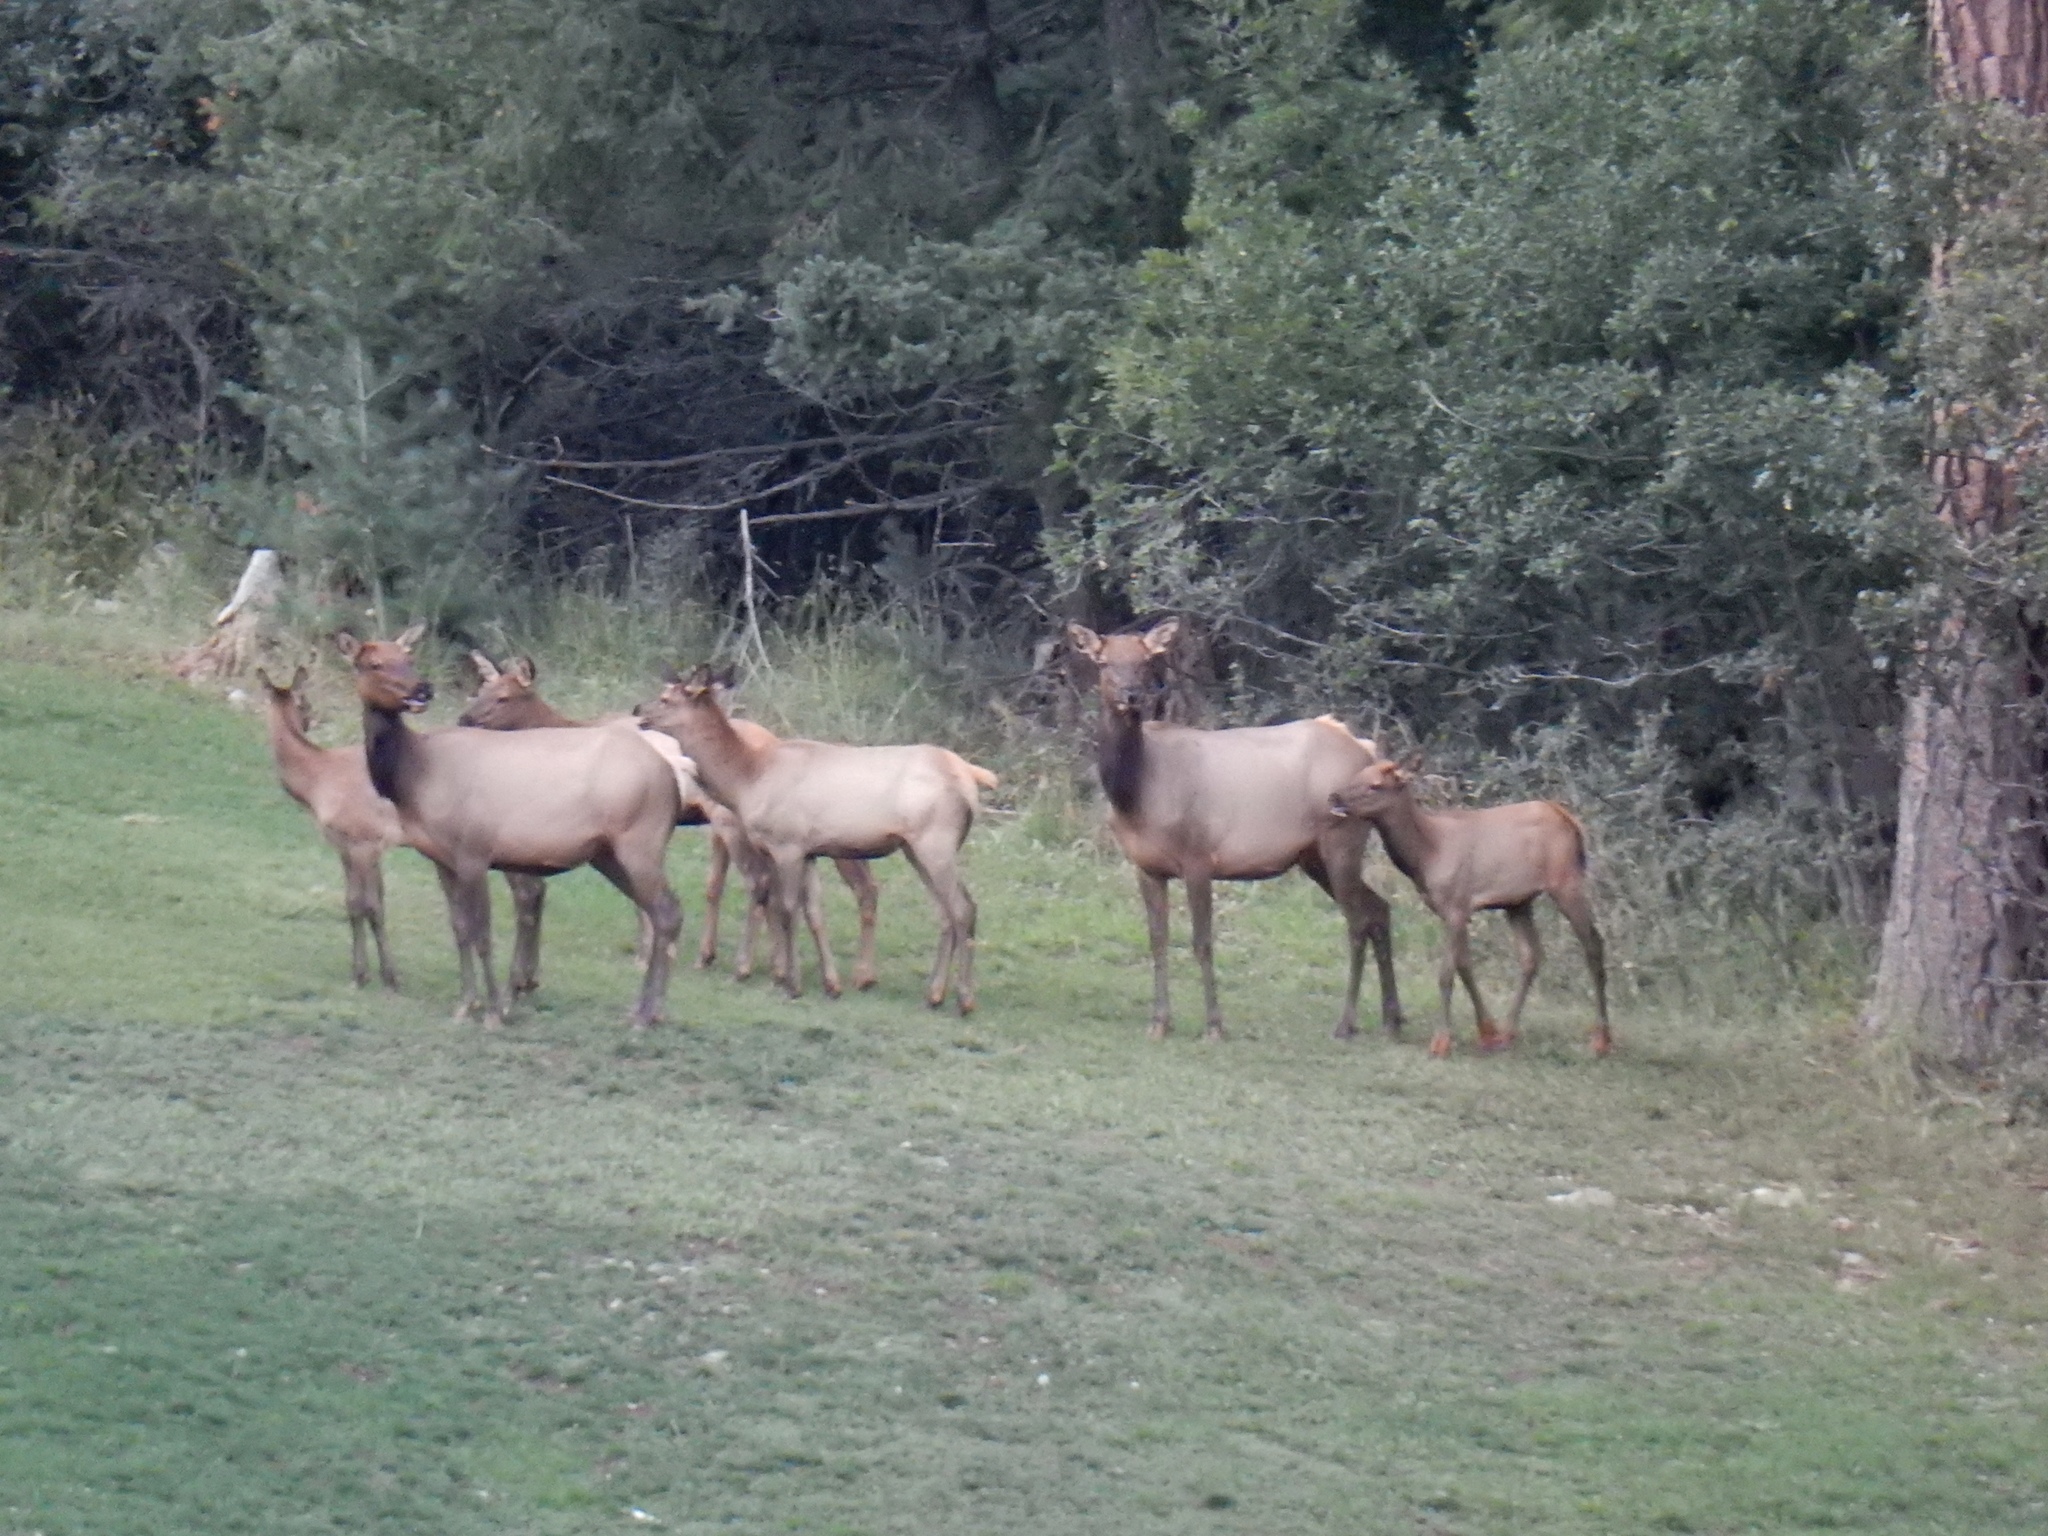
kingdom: Animalia
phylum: Chordata
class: Mammalia
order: Artiodactyla
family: Cervidae
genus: Cervus
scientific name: Cervus elaphus
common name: Red deer
